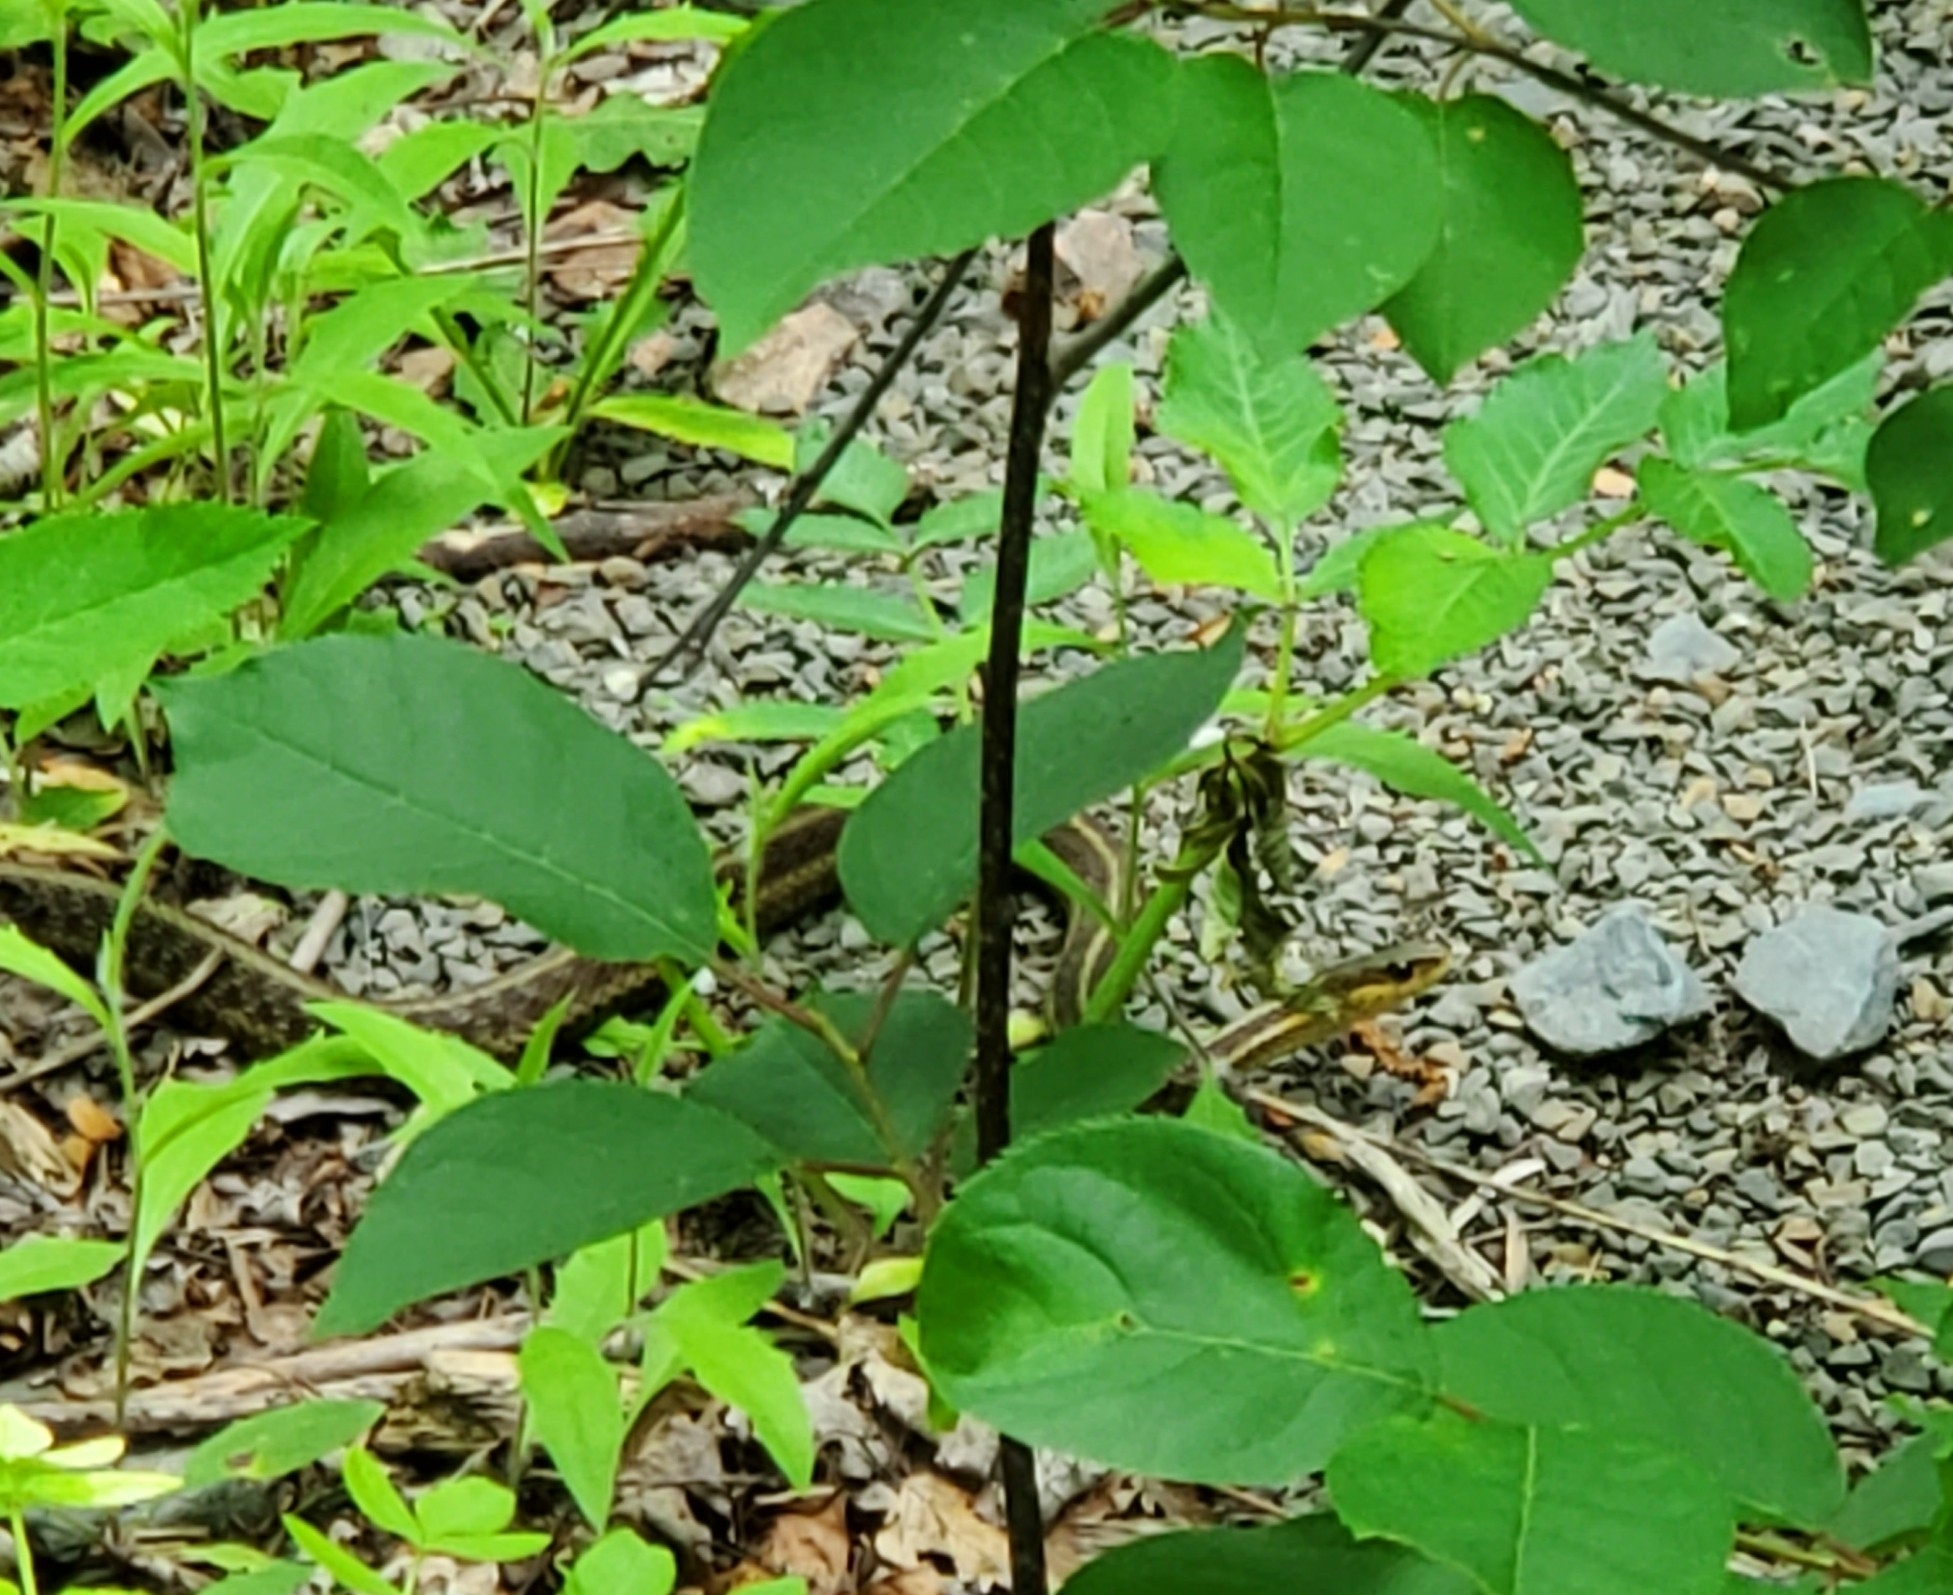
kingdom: Animalia
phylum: Chordata
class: Squamata
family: Colubridae
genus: Thamnophis
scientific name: Thamnophis sirtalis
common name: Common garter snake
